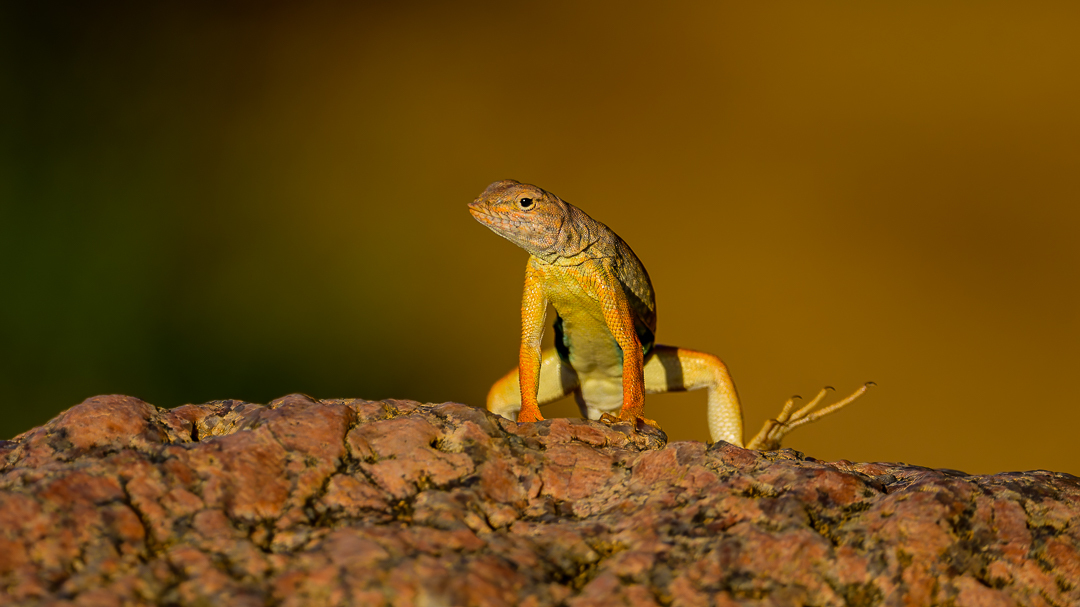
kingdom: Animalia
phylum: Chordata
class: Squamata
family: Phrynosomatidae
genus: Cophosaurus
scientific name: Cophosaurus texanus
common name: Greater earless lizard
